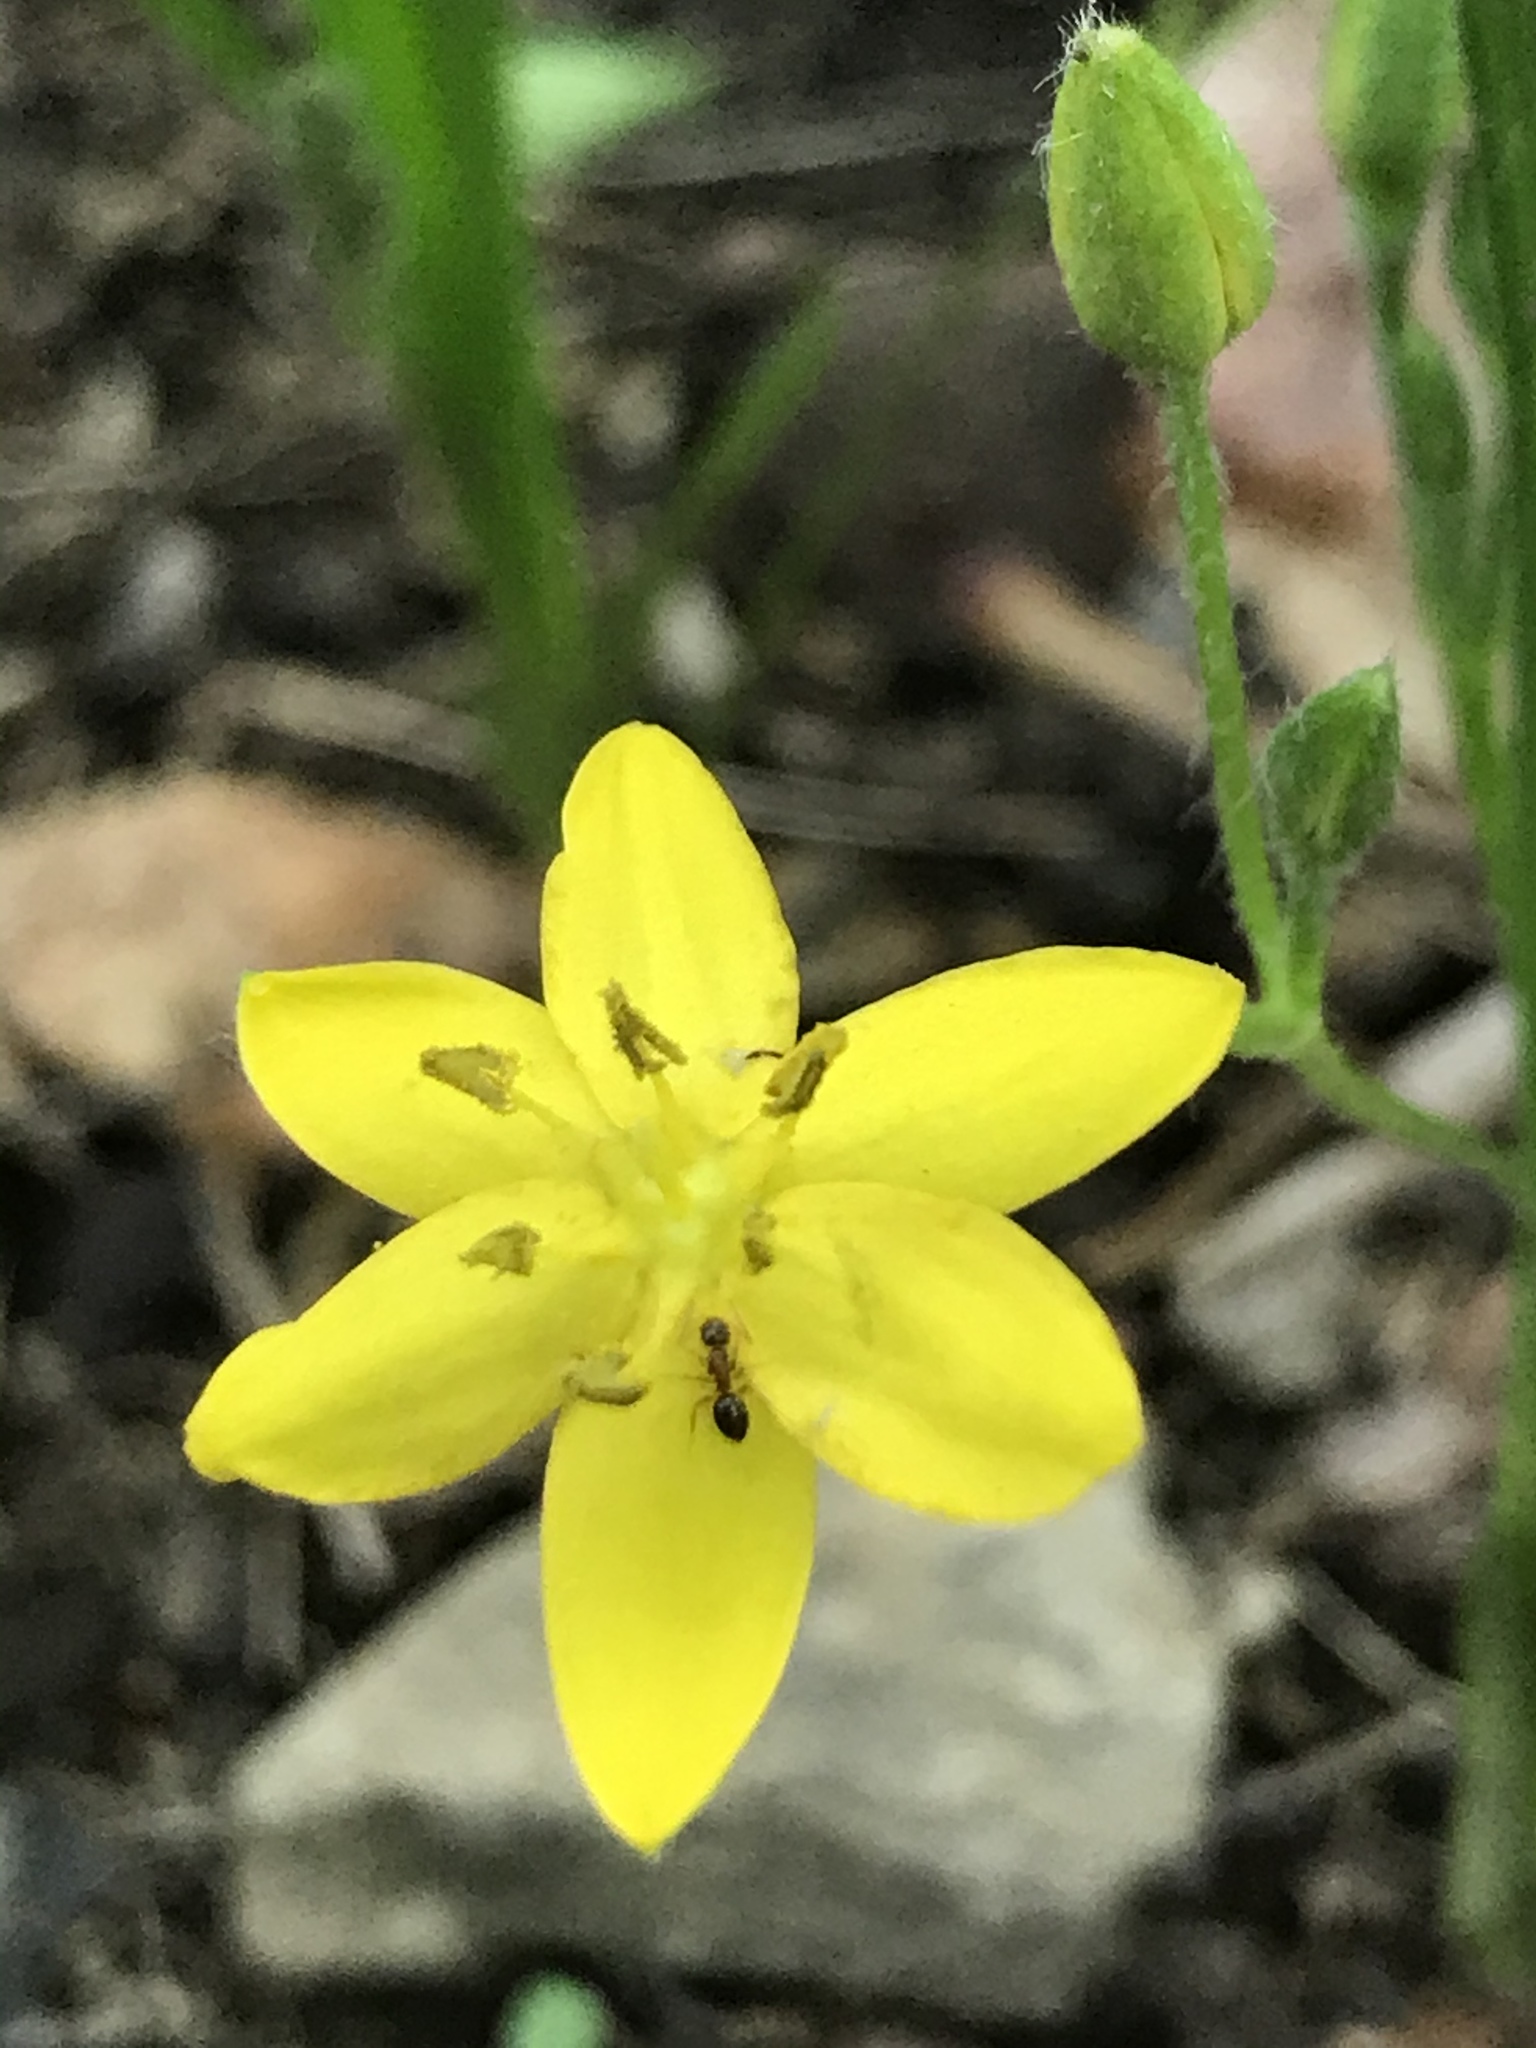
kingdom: Plantae
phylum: Tracheophyta
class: Liliopsida
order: Asparagales
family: Hypoxidaceae
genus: Hypoxis
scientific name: Hypoxis hirsuta
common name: Common goldstar
